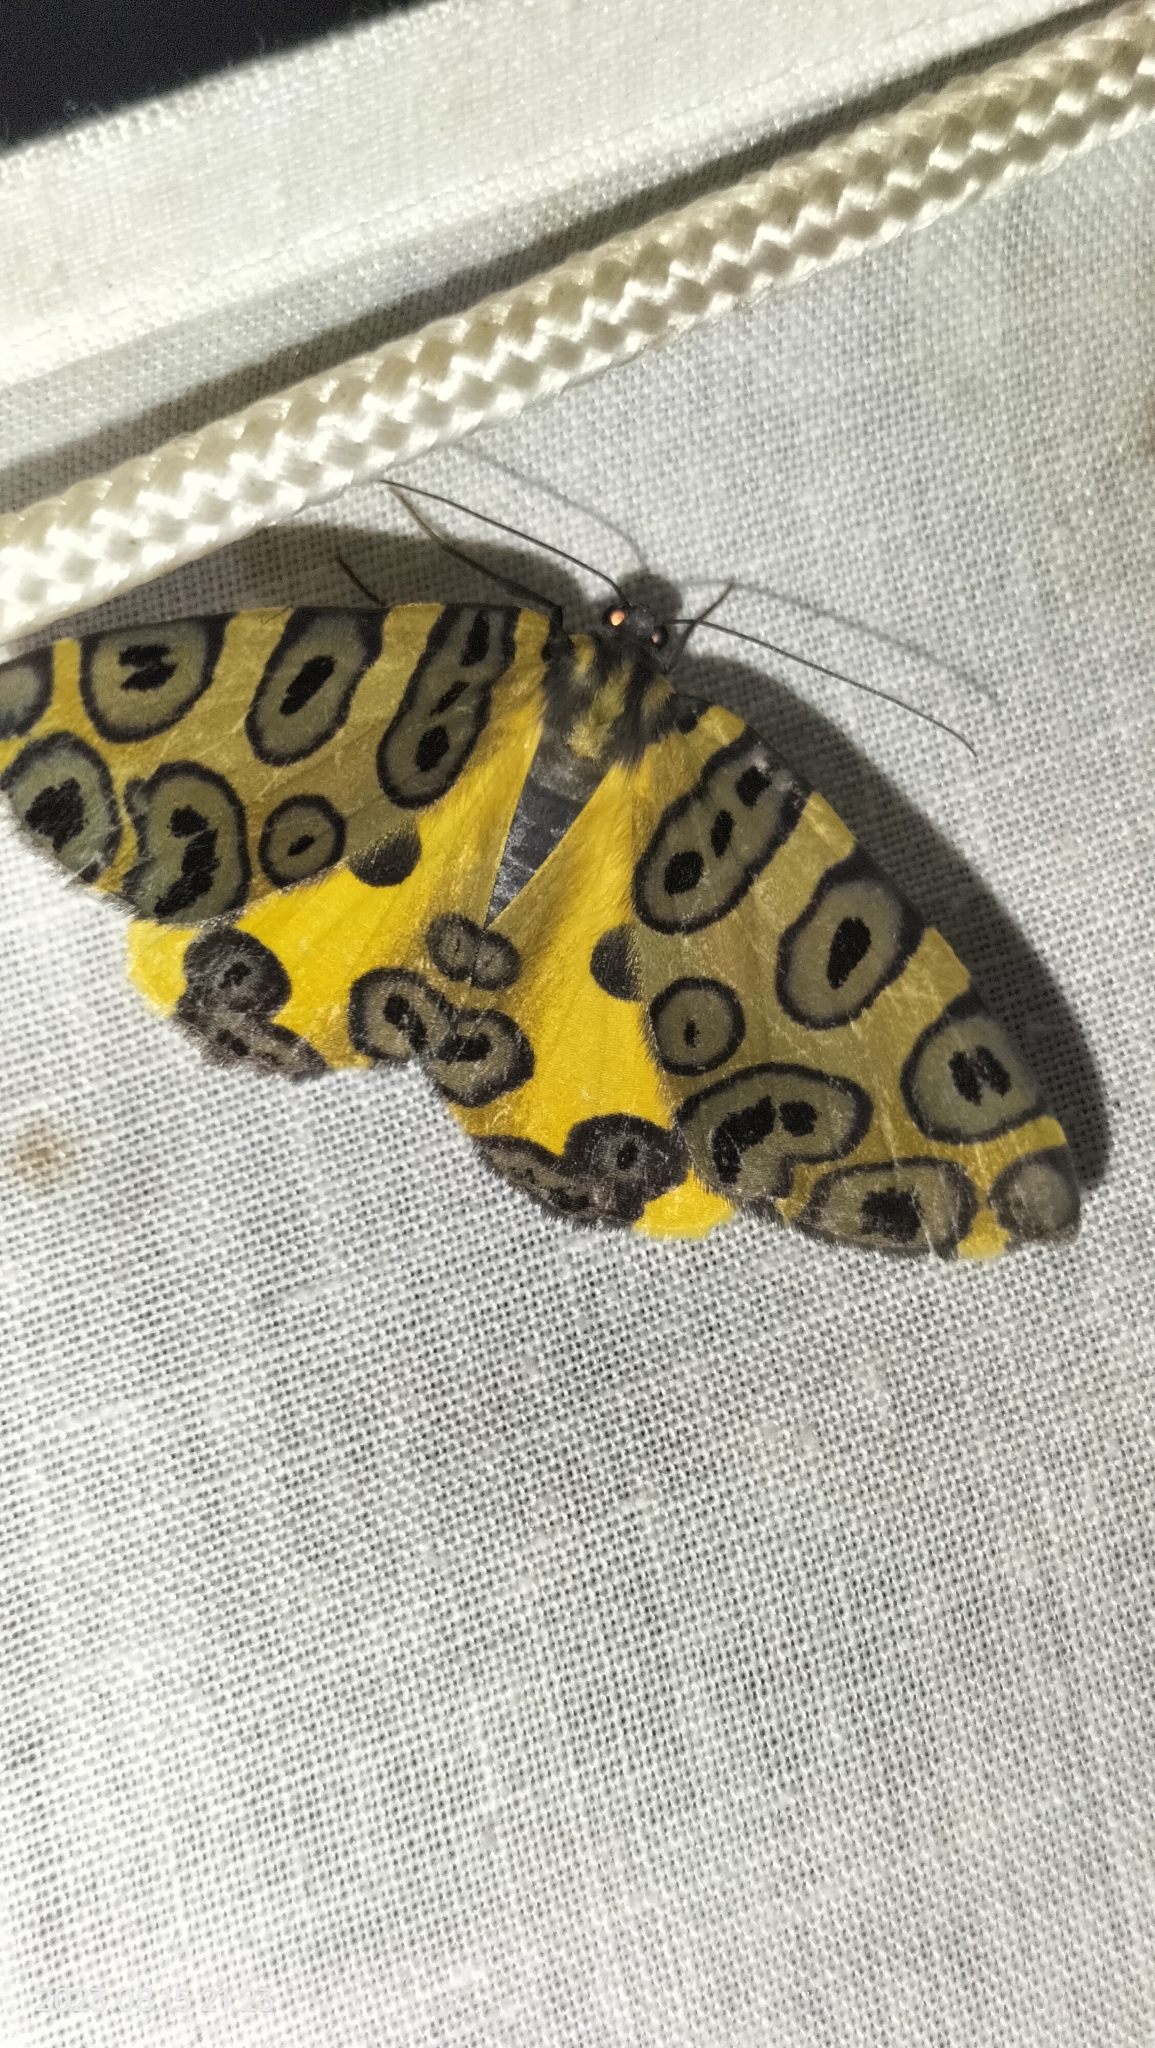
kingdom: Animalia
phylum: Arthropoda
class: Insecta
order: Lepidoptera
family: Geometridae
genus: Pantherodes
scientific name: Pantherodes pardalaria
